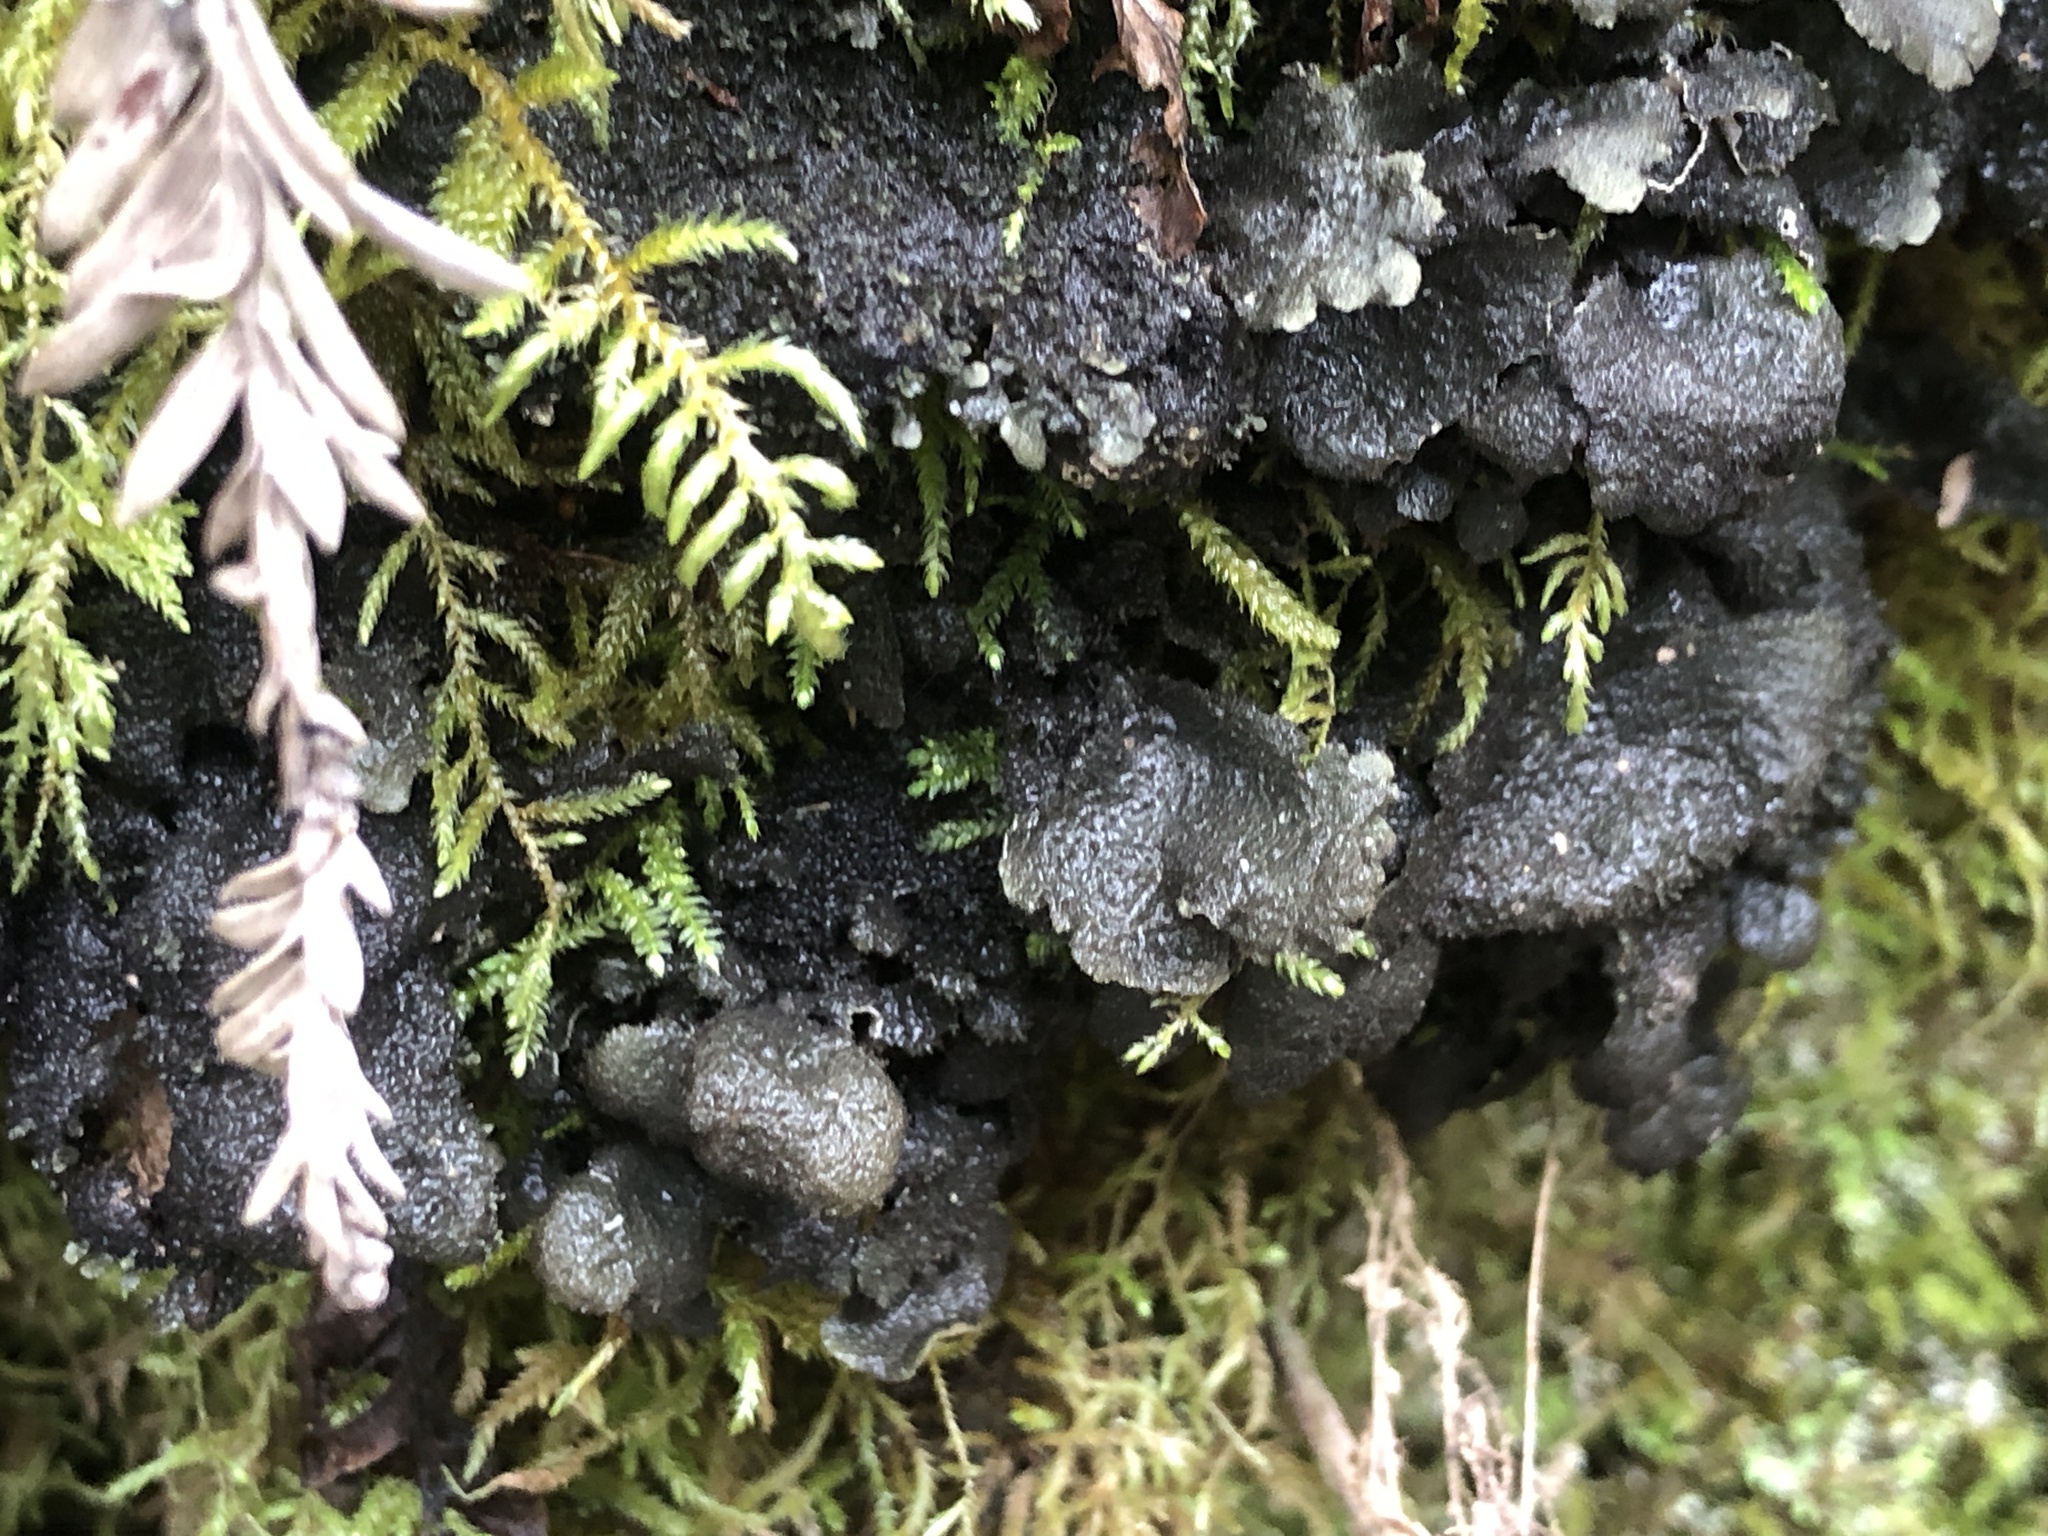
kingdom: Fungi
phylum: Ascomycota
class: Lecanoromycetes
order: Peltigerales
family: Lobariaceae
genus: Sticta
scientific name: Sticta
